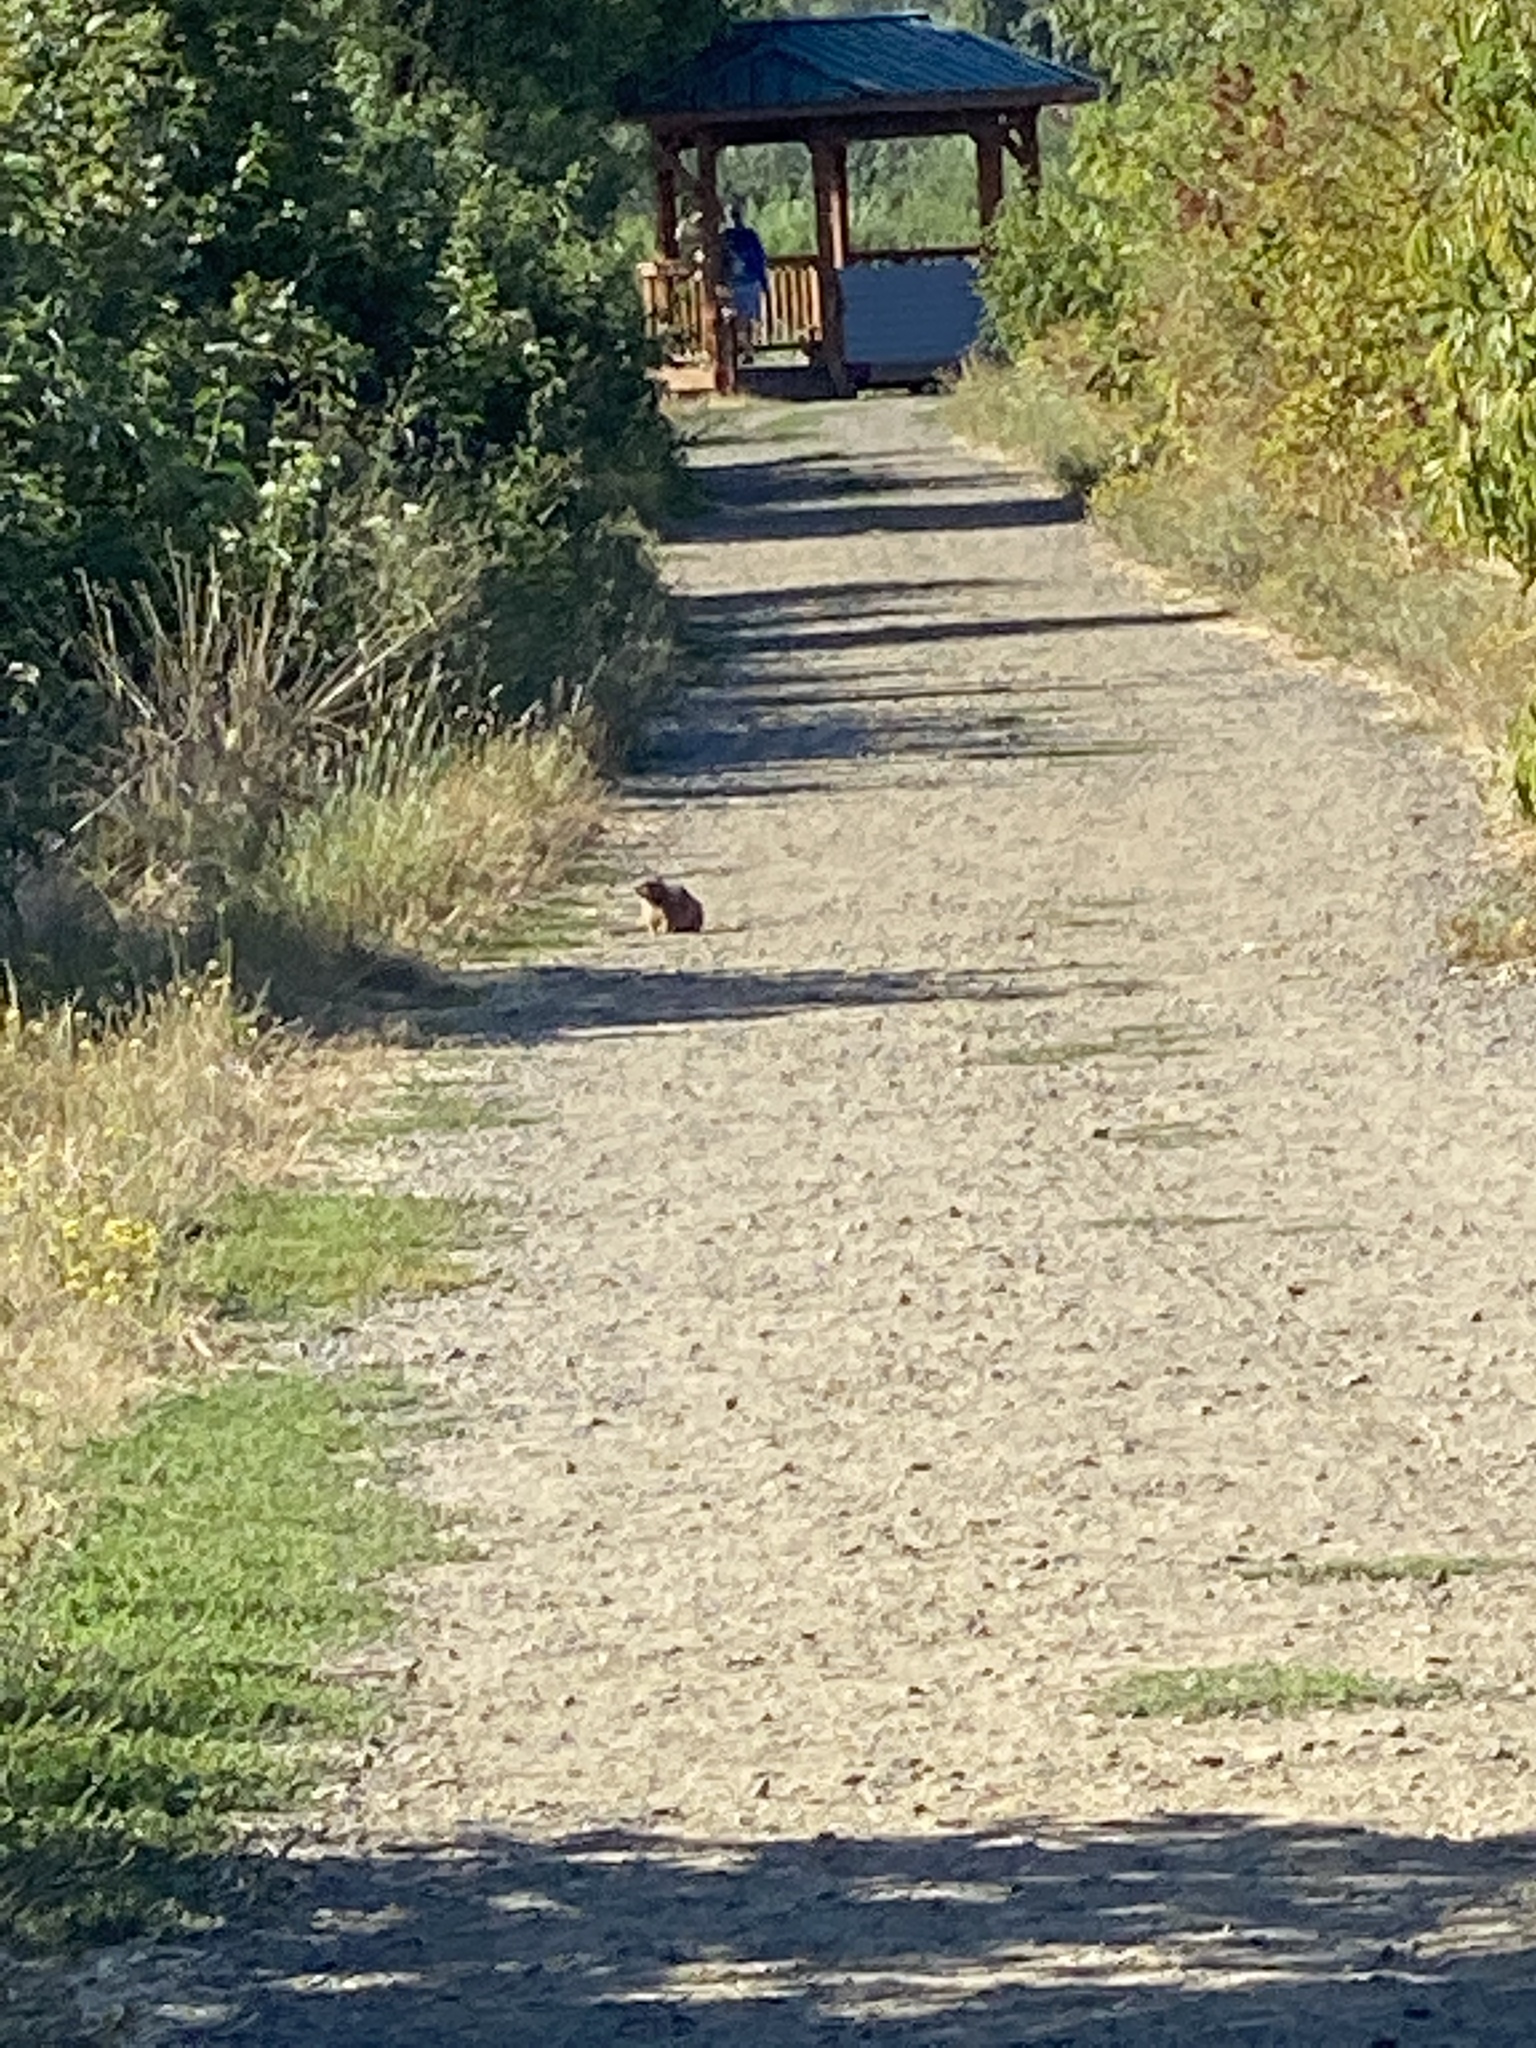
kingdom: Animalia
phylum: Chordata
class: Mammalia
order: Rodentia
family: Sciuridae
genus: Otospermophilus
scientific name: Otospermophilus beecheyi
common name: California ground squirrel
